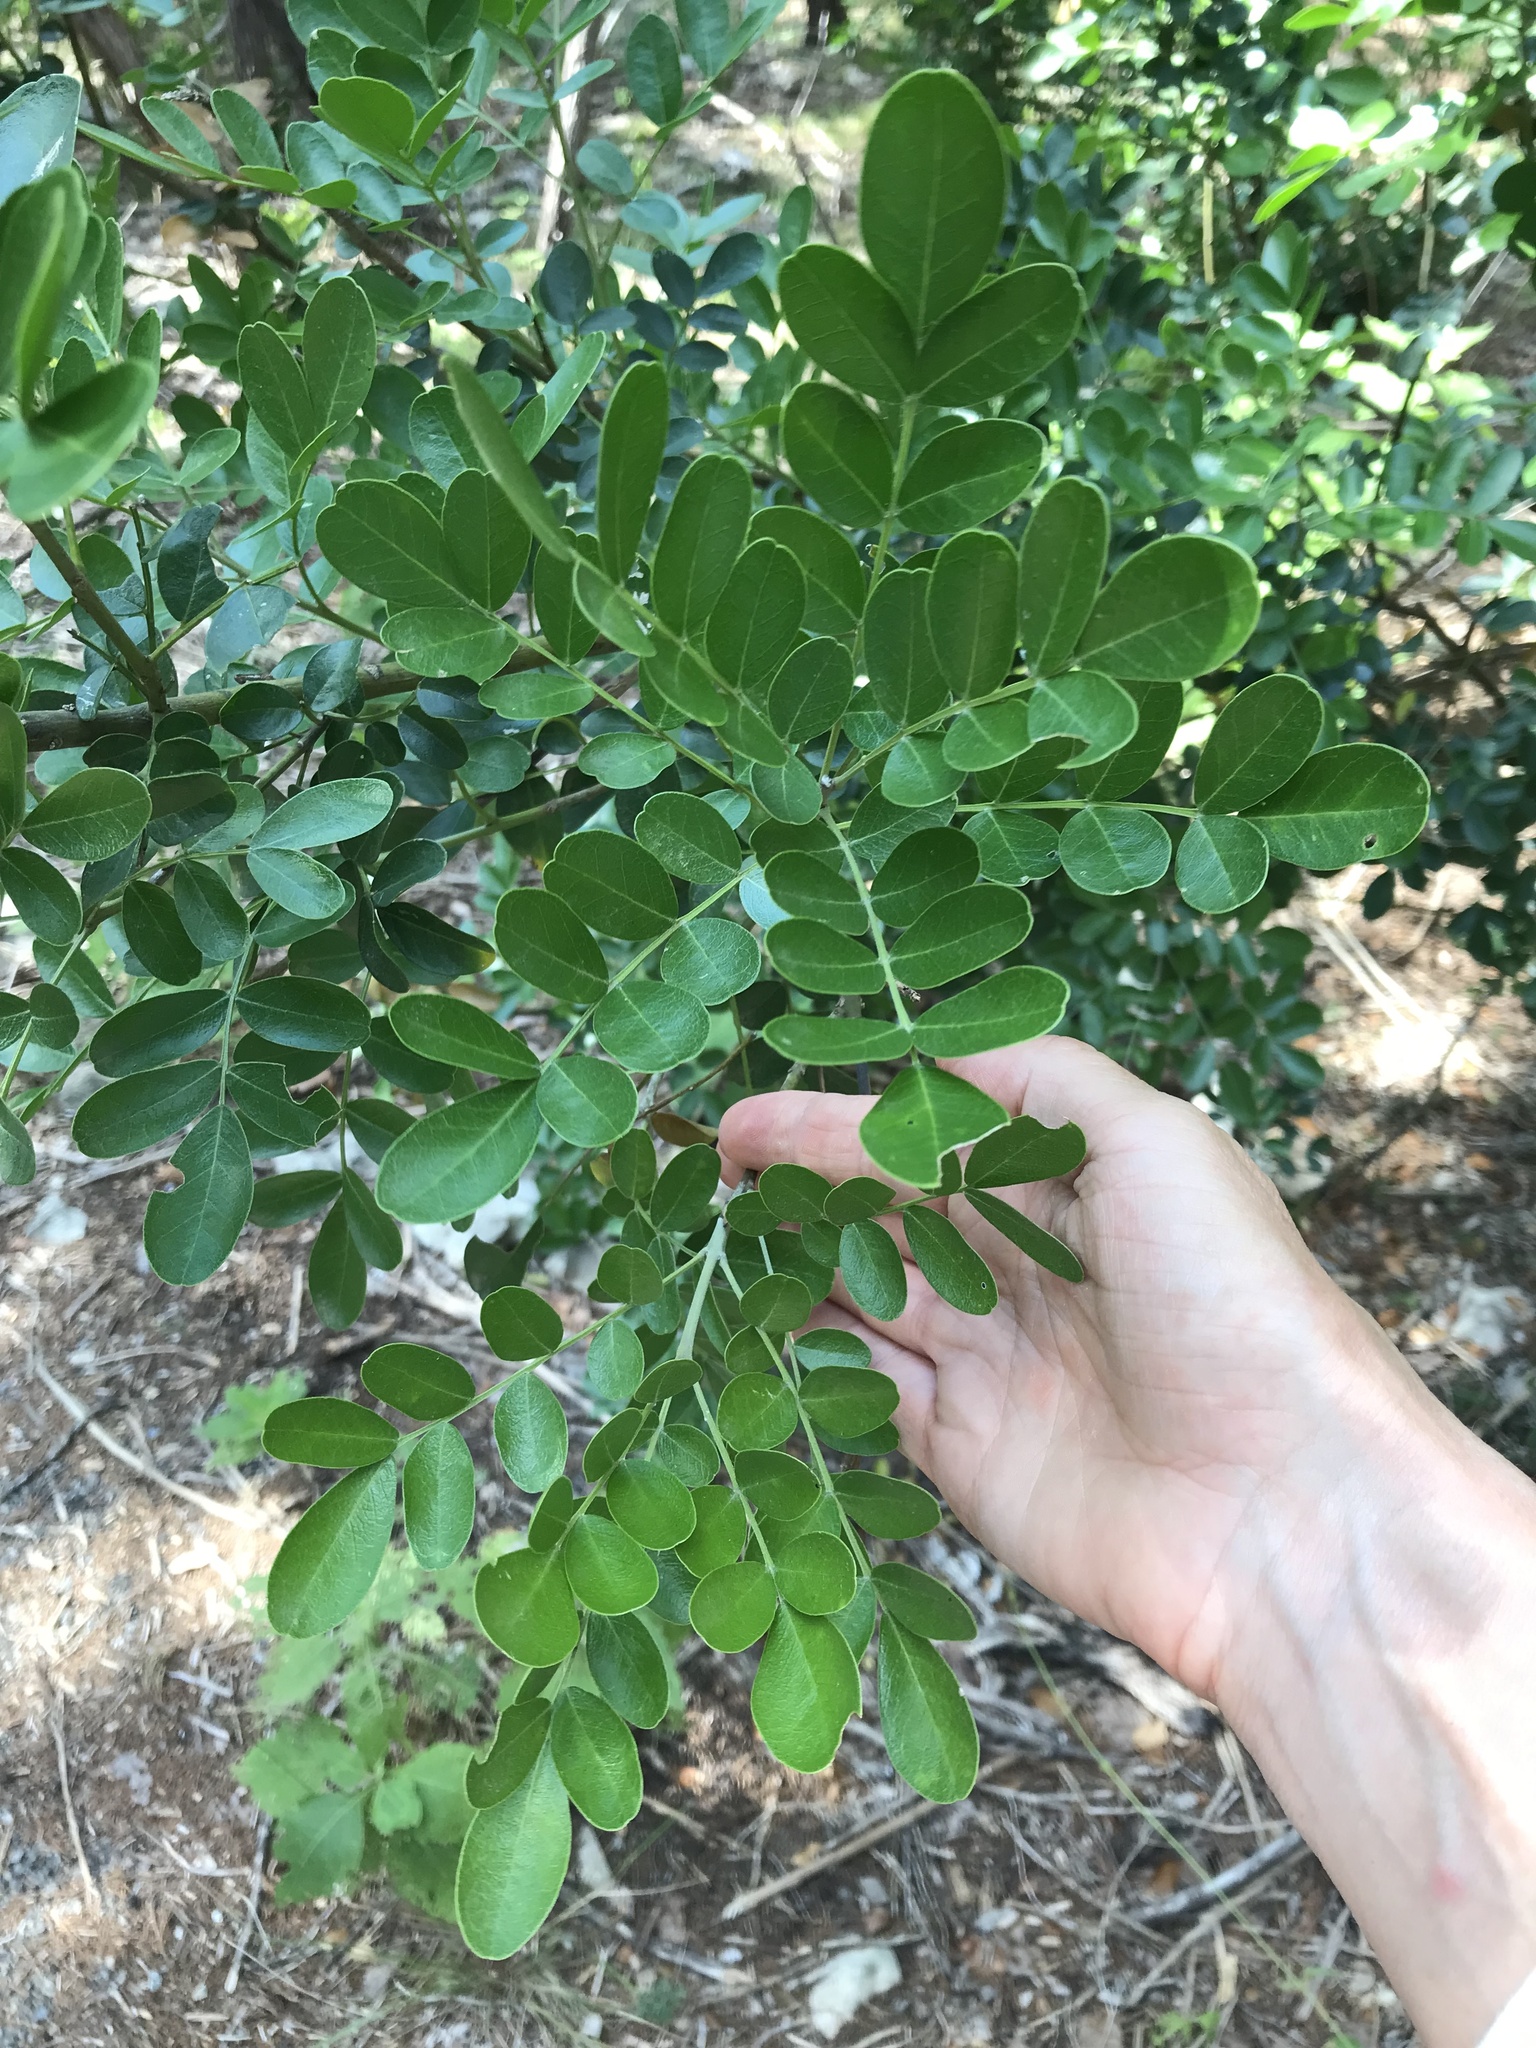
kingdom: Plantae
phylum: Tracheophyta
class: Magnoliopsida
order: Fabales
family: Fabaceae
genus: Dermatophyllum
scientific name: Dermatophyllum secundiflorum
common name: Texas-mountain-laurel
